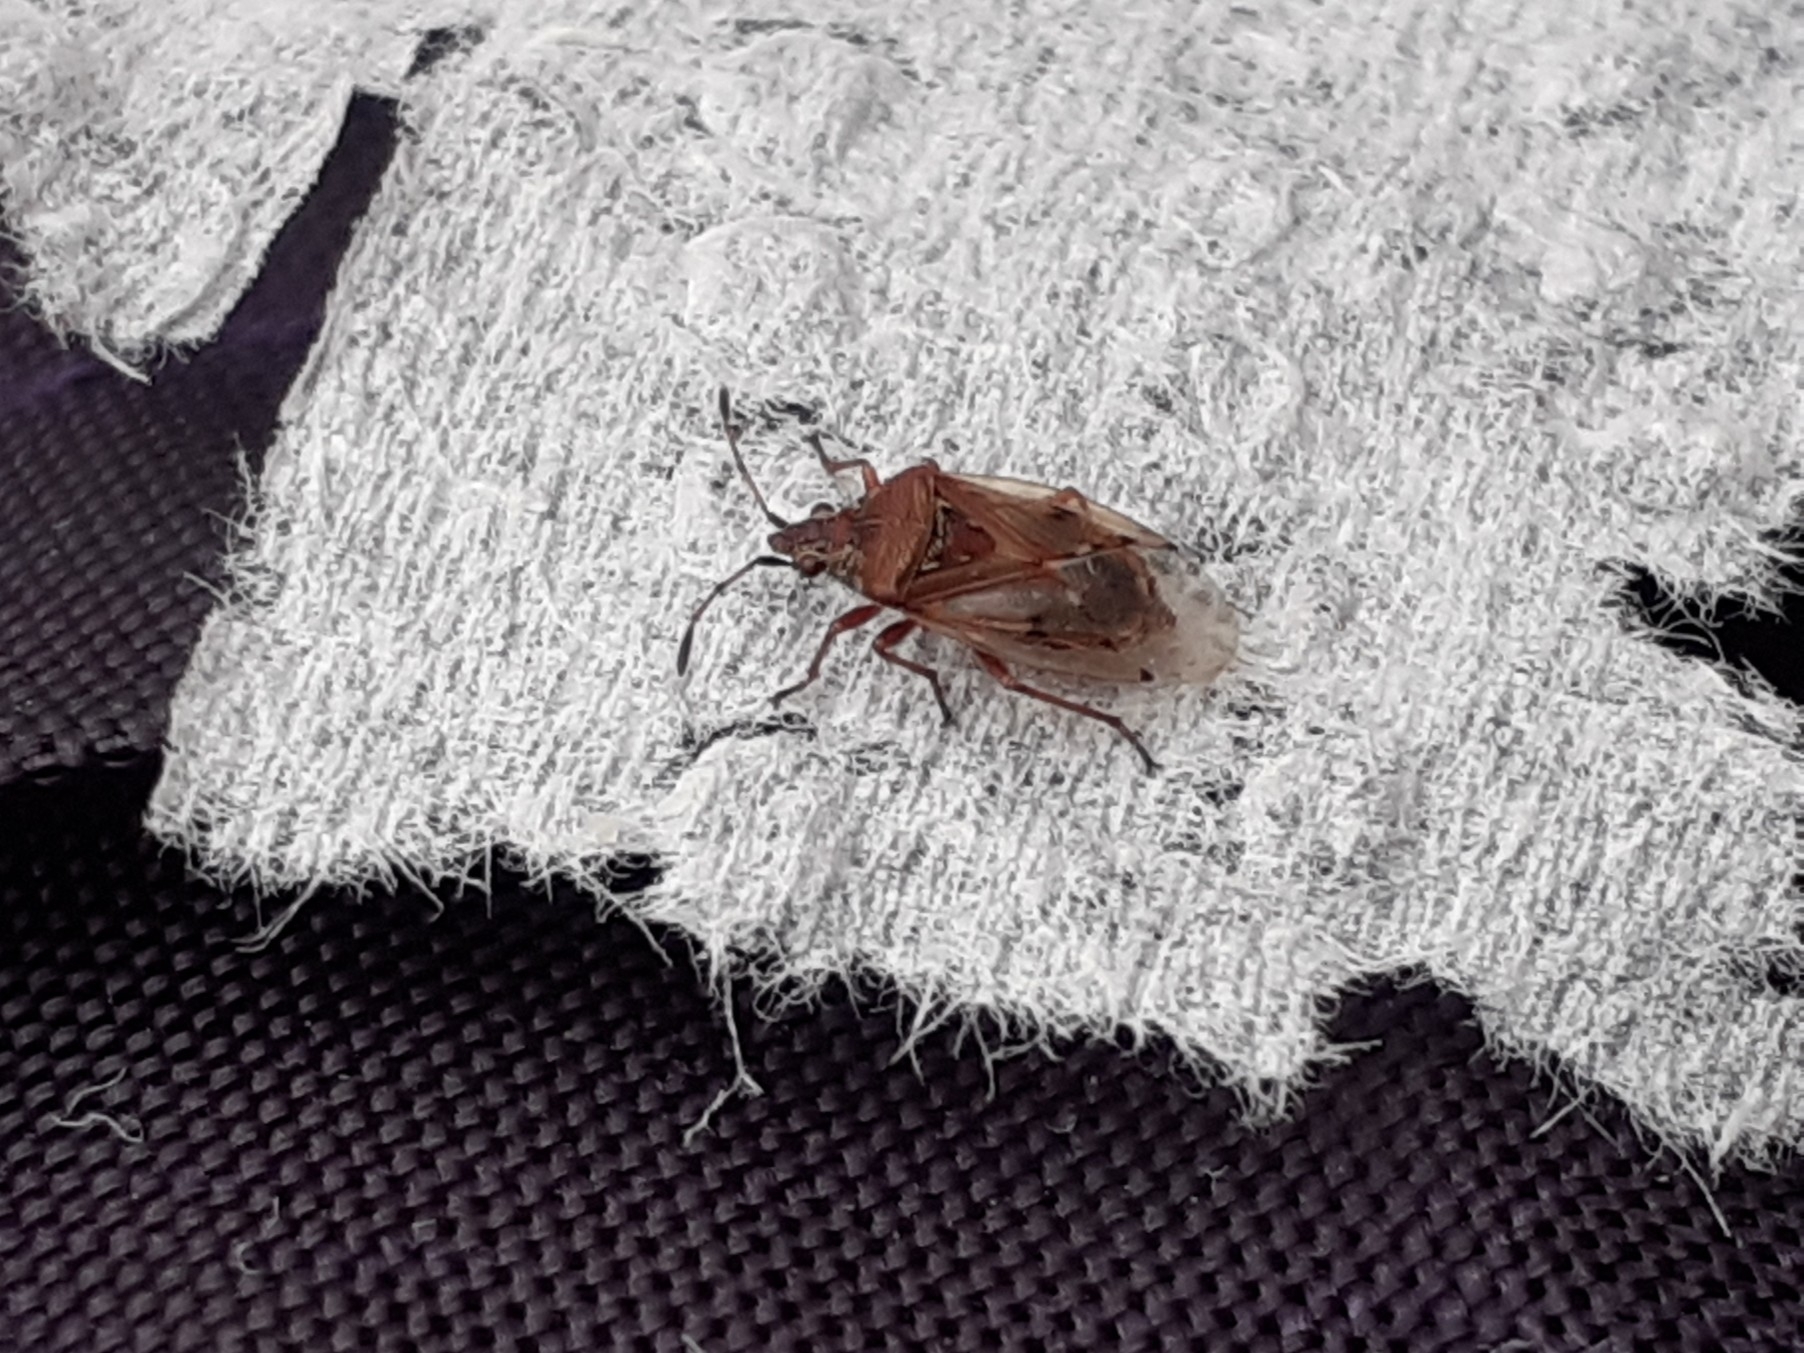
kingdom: Animalia
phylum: Arthropoda
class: Insecta
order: Hemiptera
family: Lygaeidae
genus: Kleidocerys
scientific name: Kleidocerys resedae
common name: Birch catkin bug
